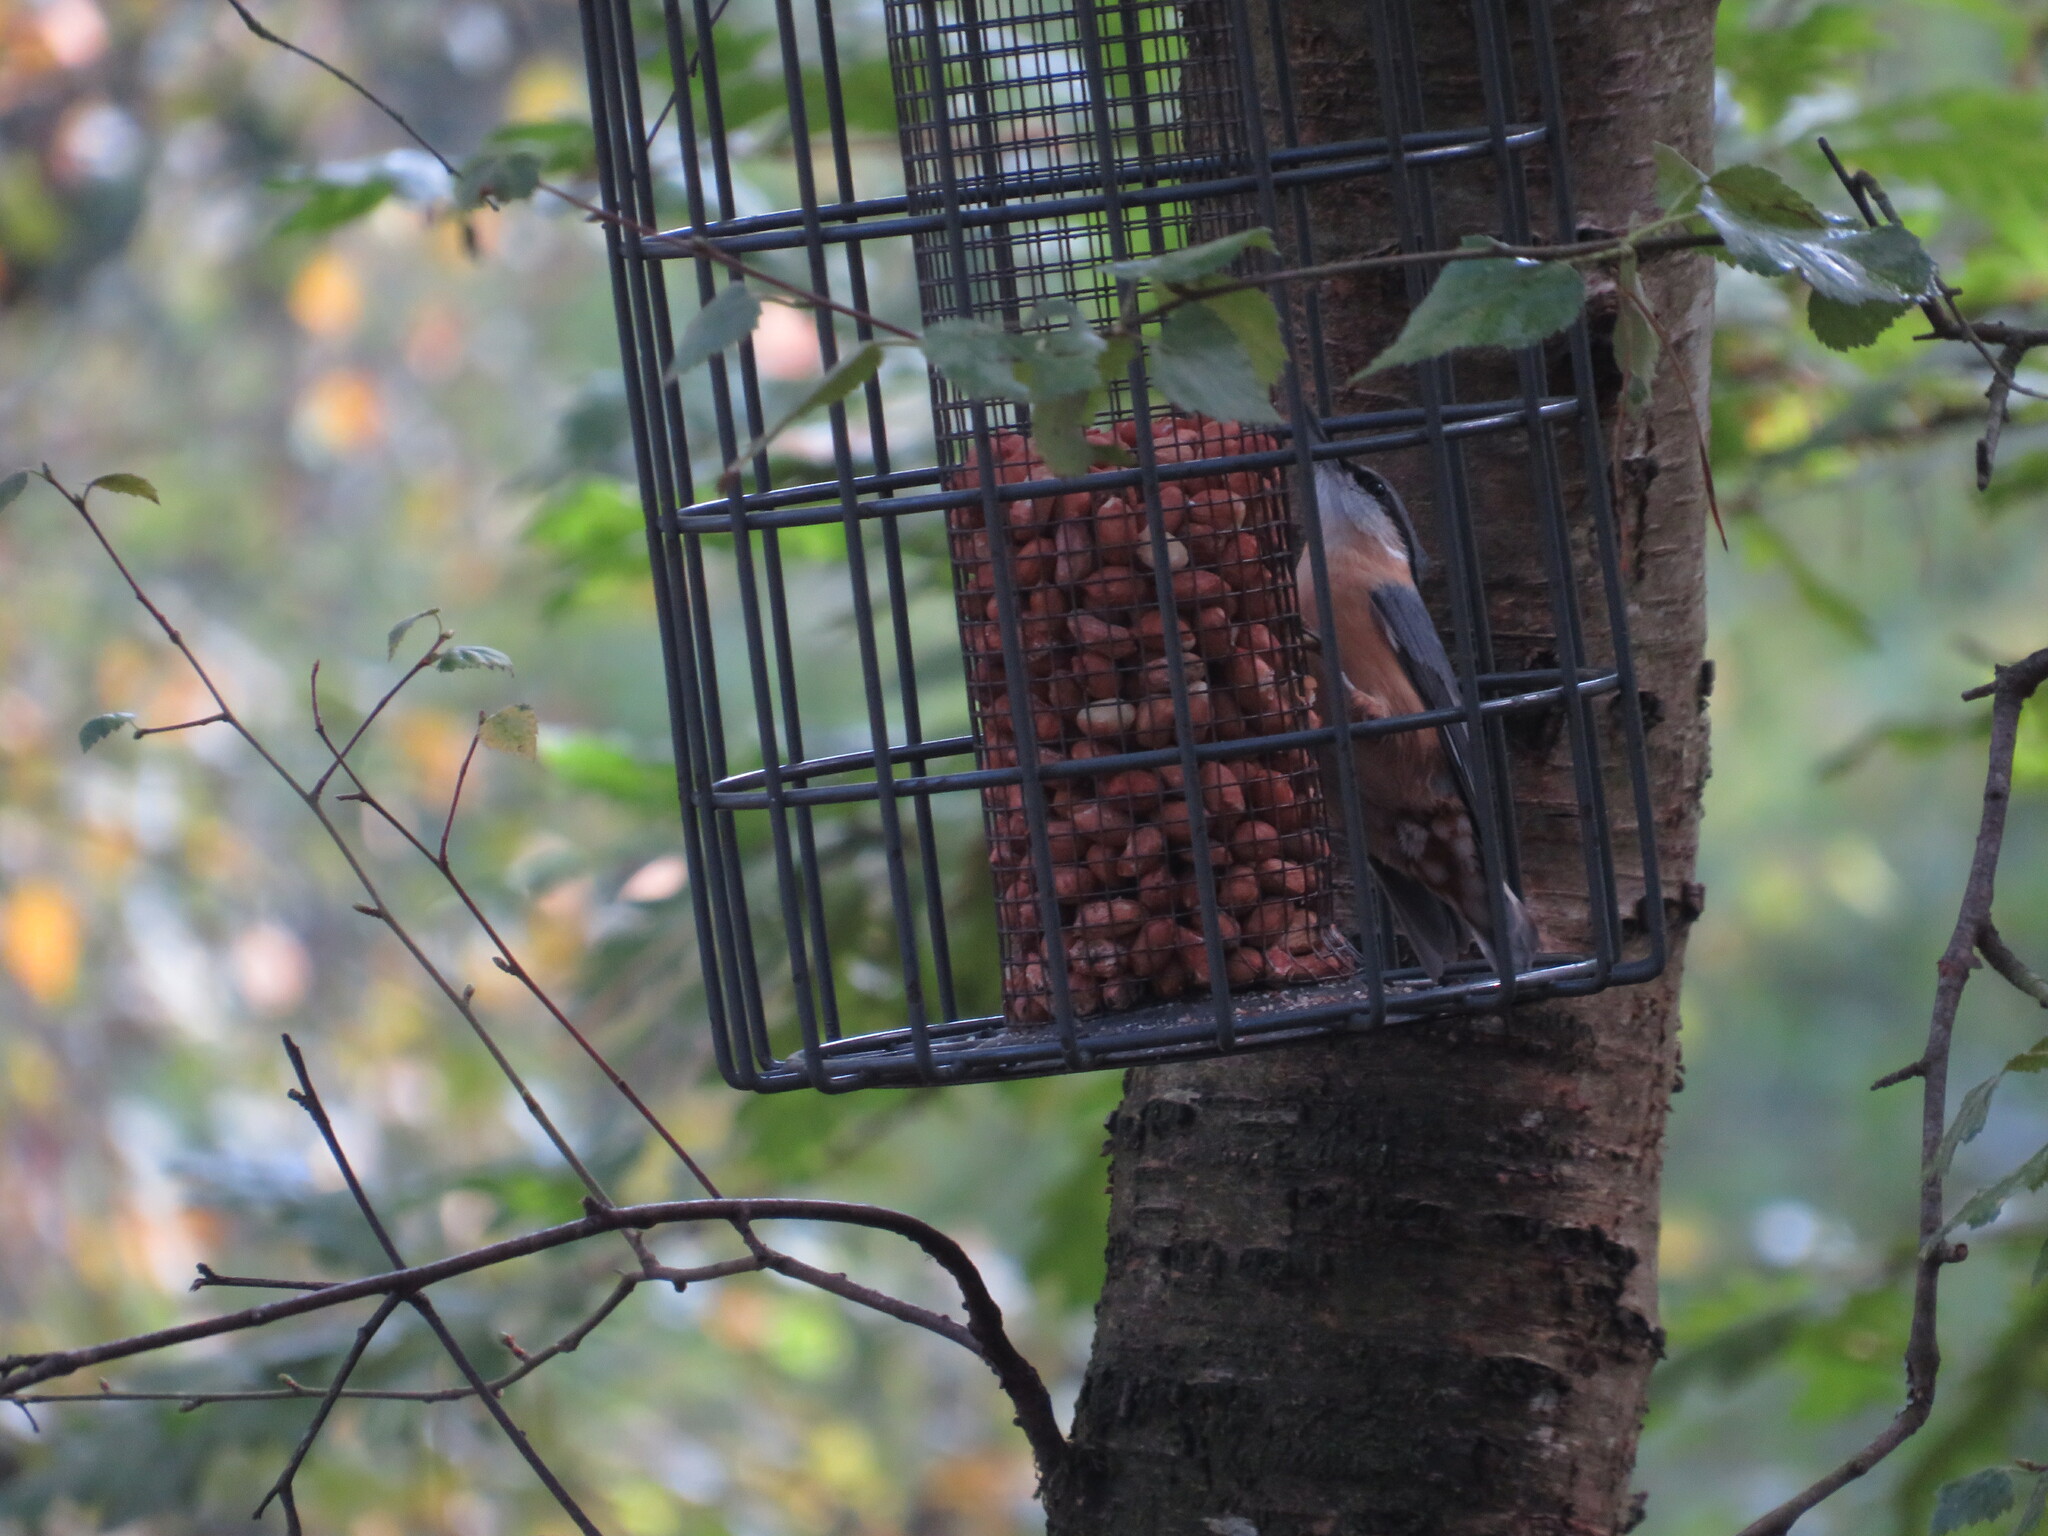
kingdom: Animalia
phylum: Chordata
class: Aves
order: Passeriformes
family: Sittidae
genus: Sitta
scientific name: Sitta europaea
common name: Eurasian nuthatch
